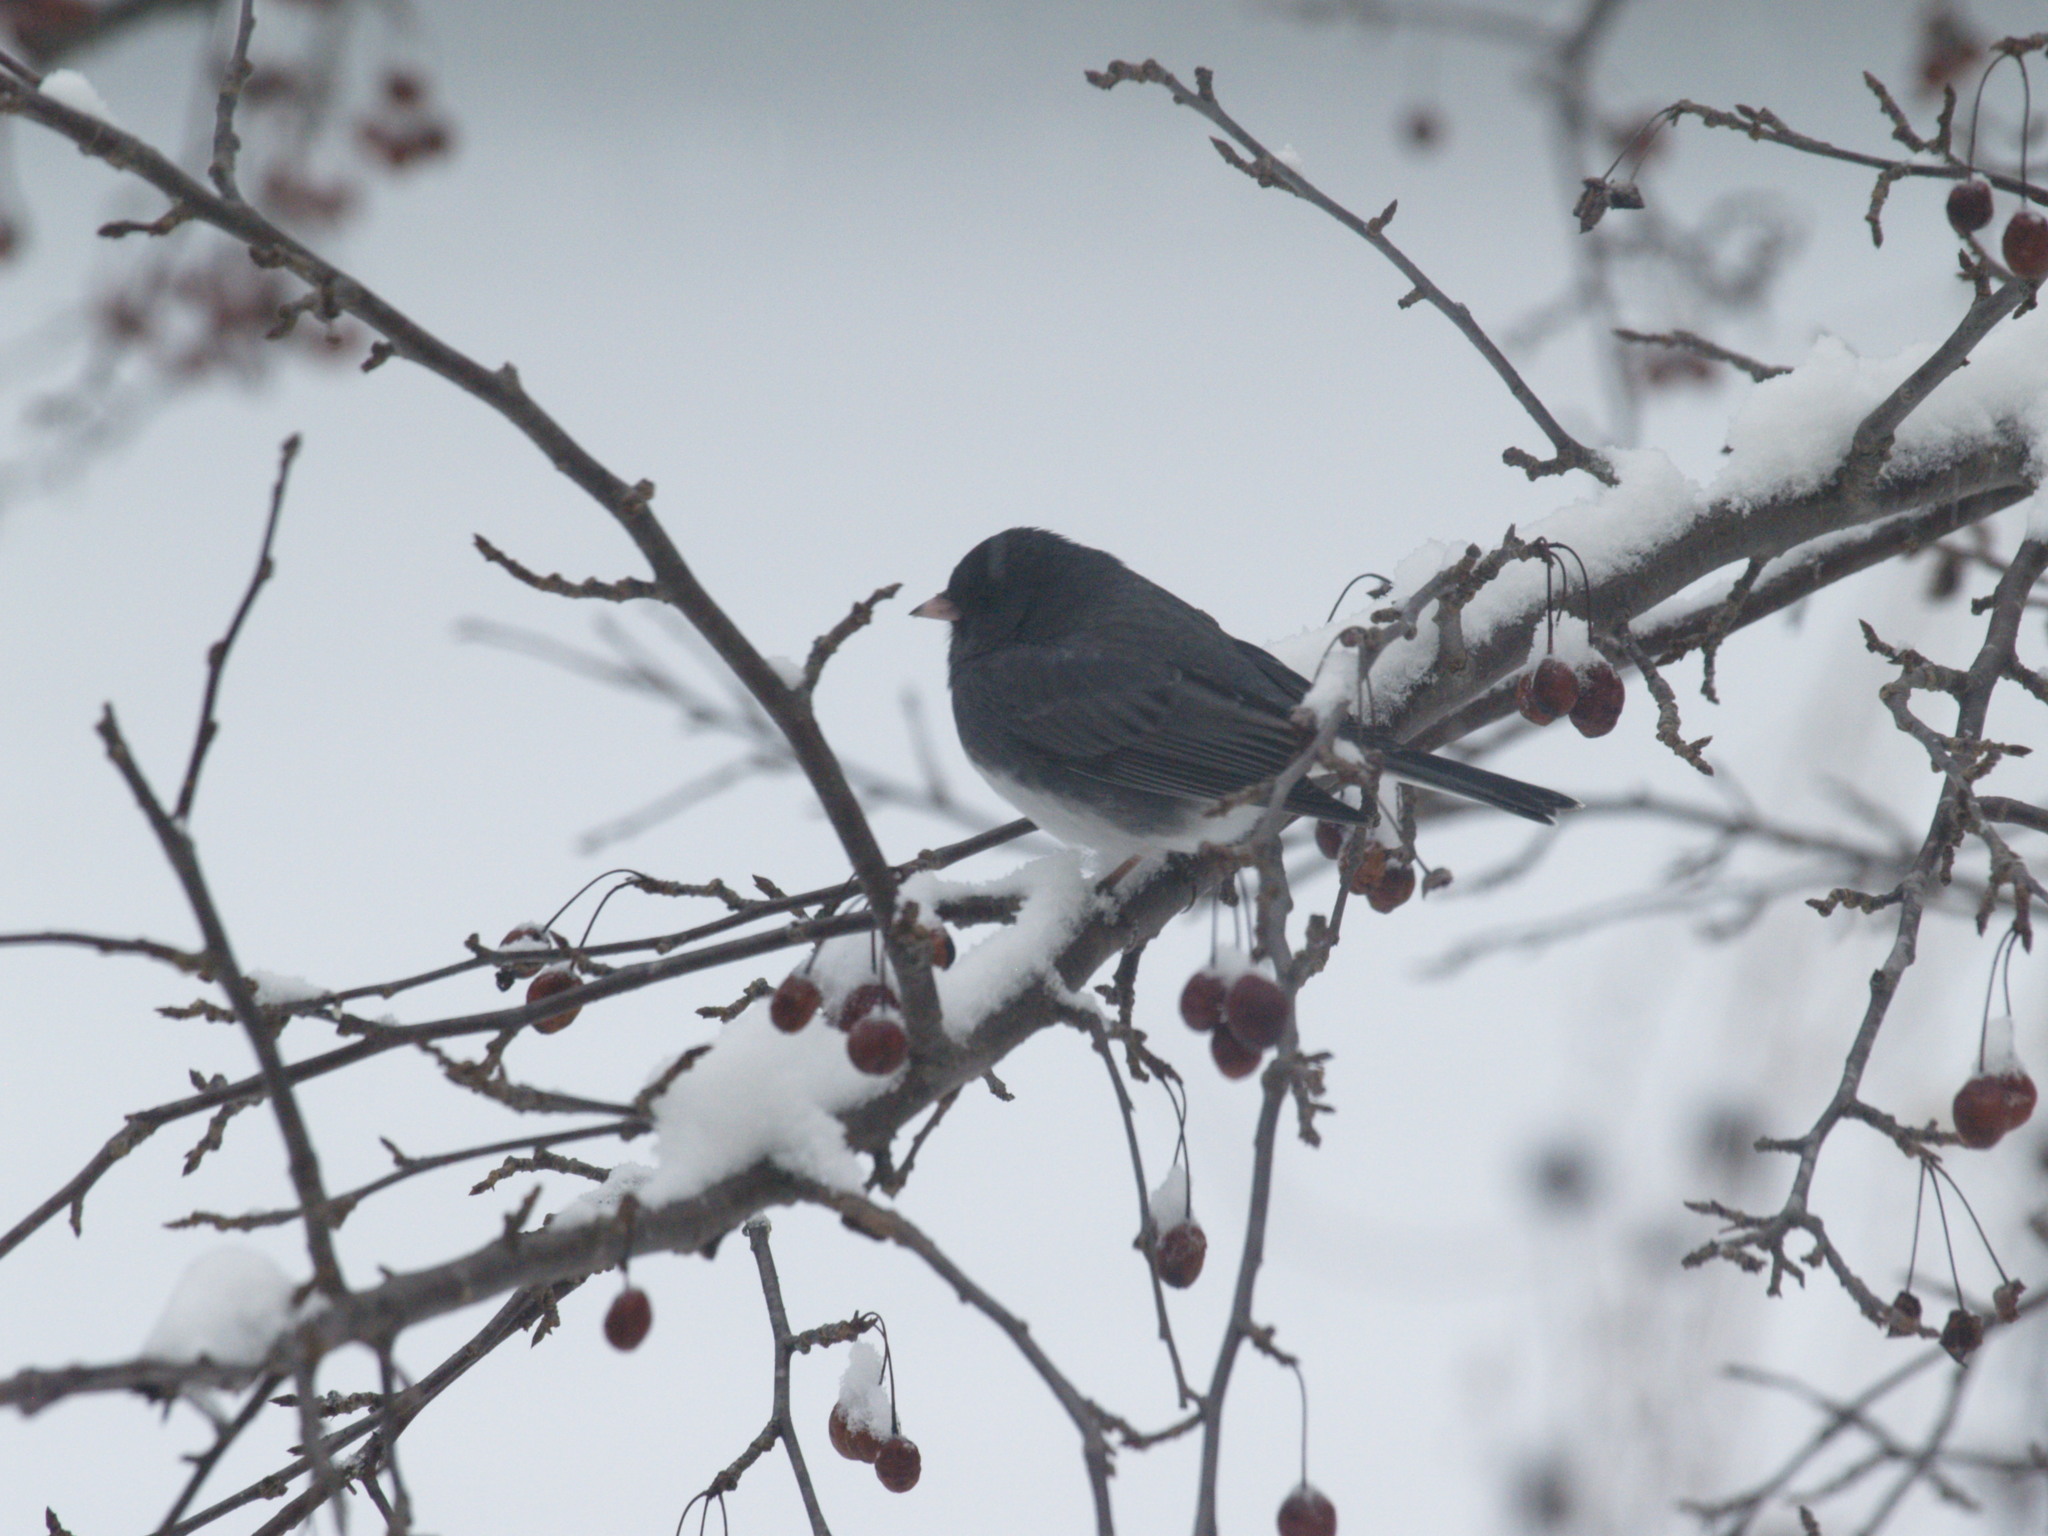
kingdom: Animalia
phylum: Chordata
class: Aves
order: Passeriformes
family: Passerellidae
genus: Junco
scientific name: Junco hyemalis
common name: Dark-eyed junco
